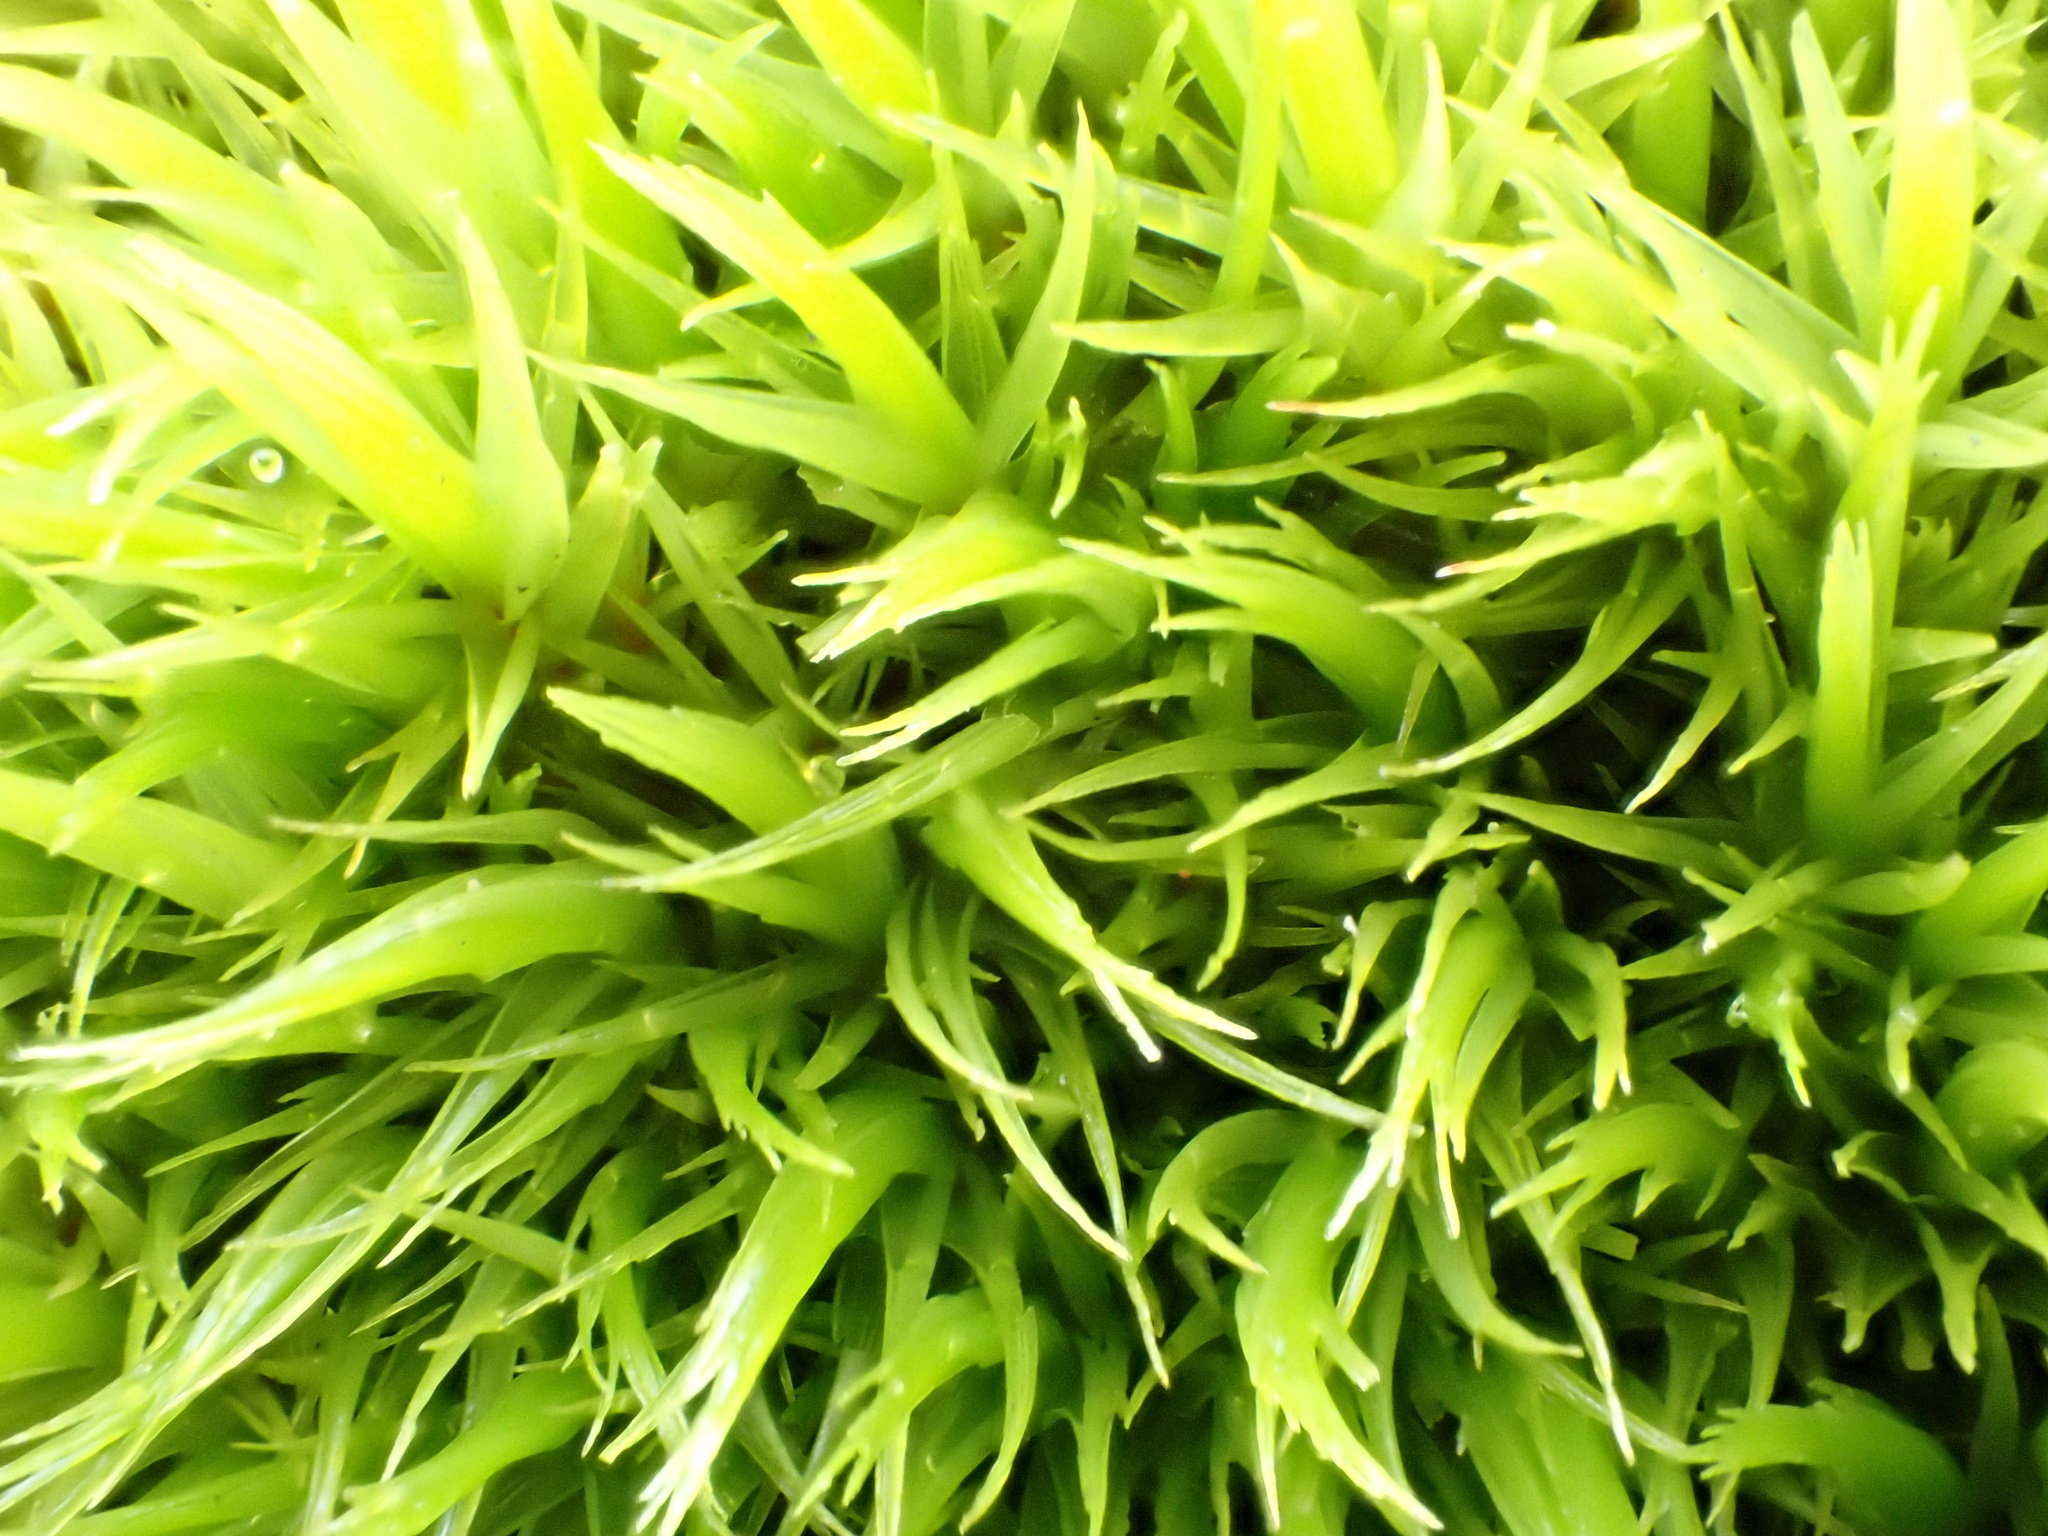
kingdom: Plantae
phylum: Bryophyta
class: Bryopsida
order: Dicranales
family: Dicranaceae
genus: Dicranum
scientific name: Dicranum scoparium
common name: Broom fork-moss
